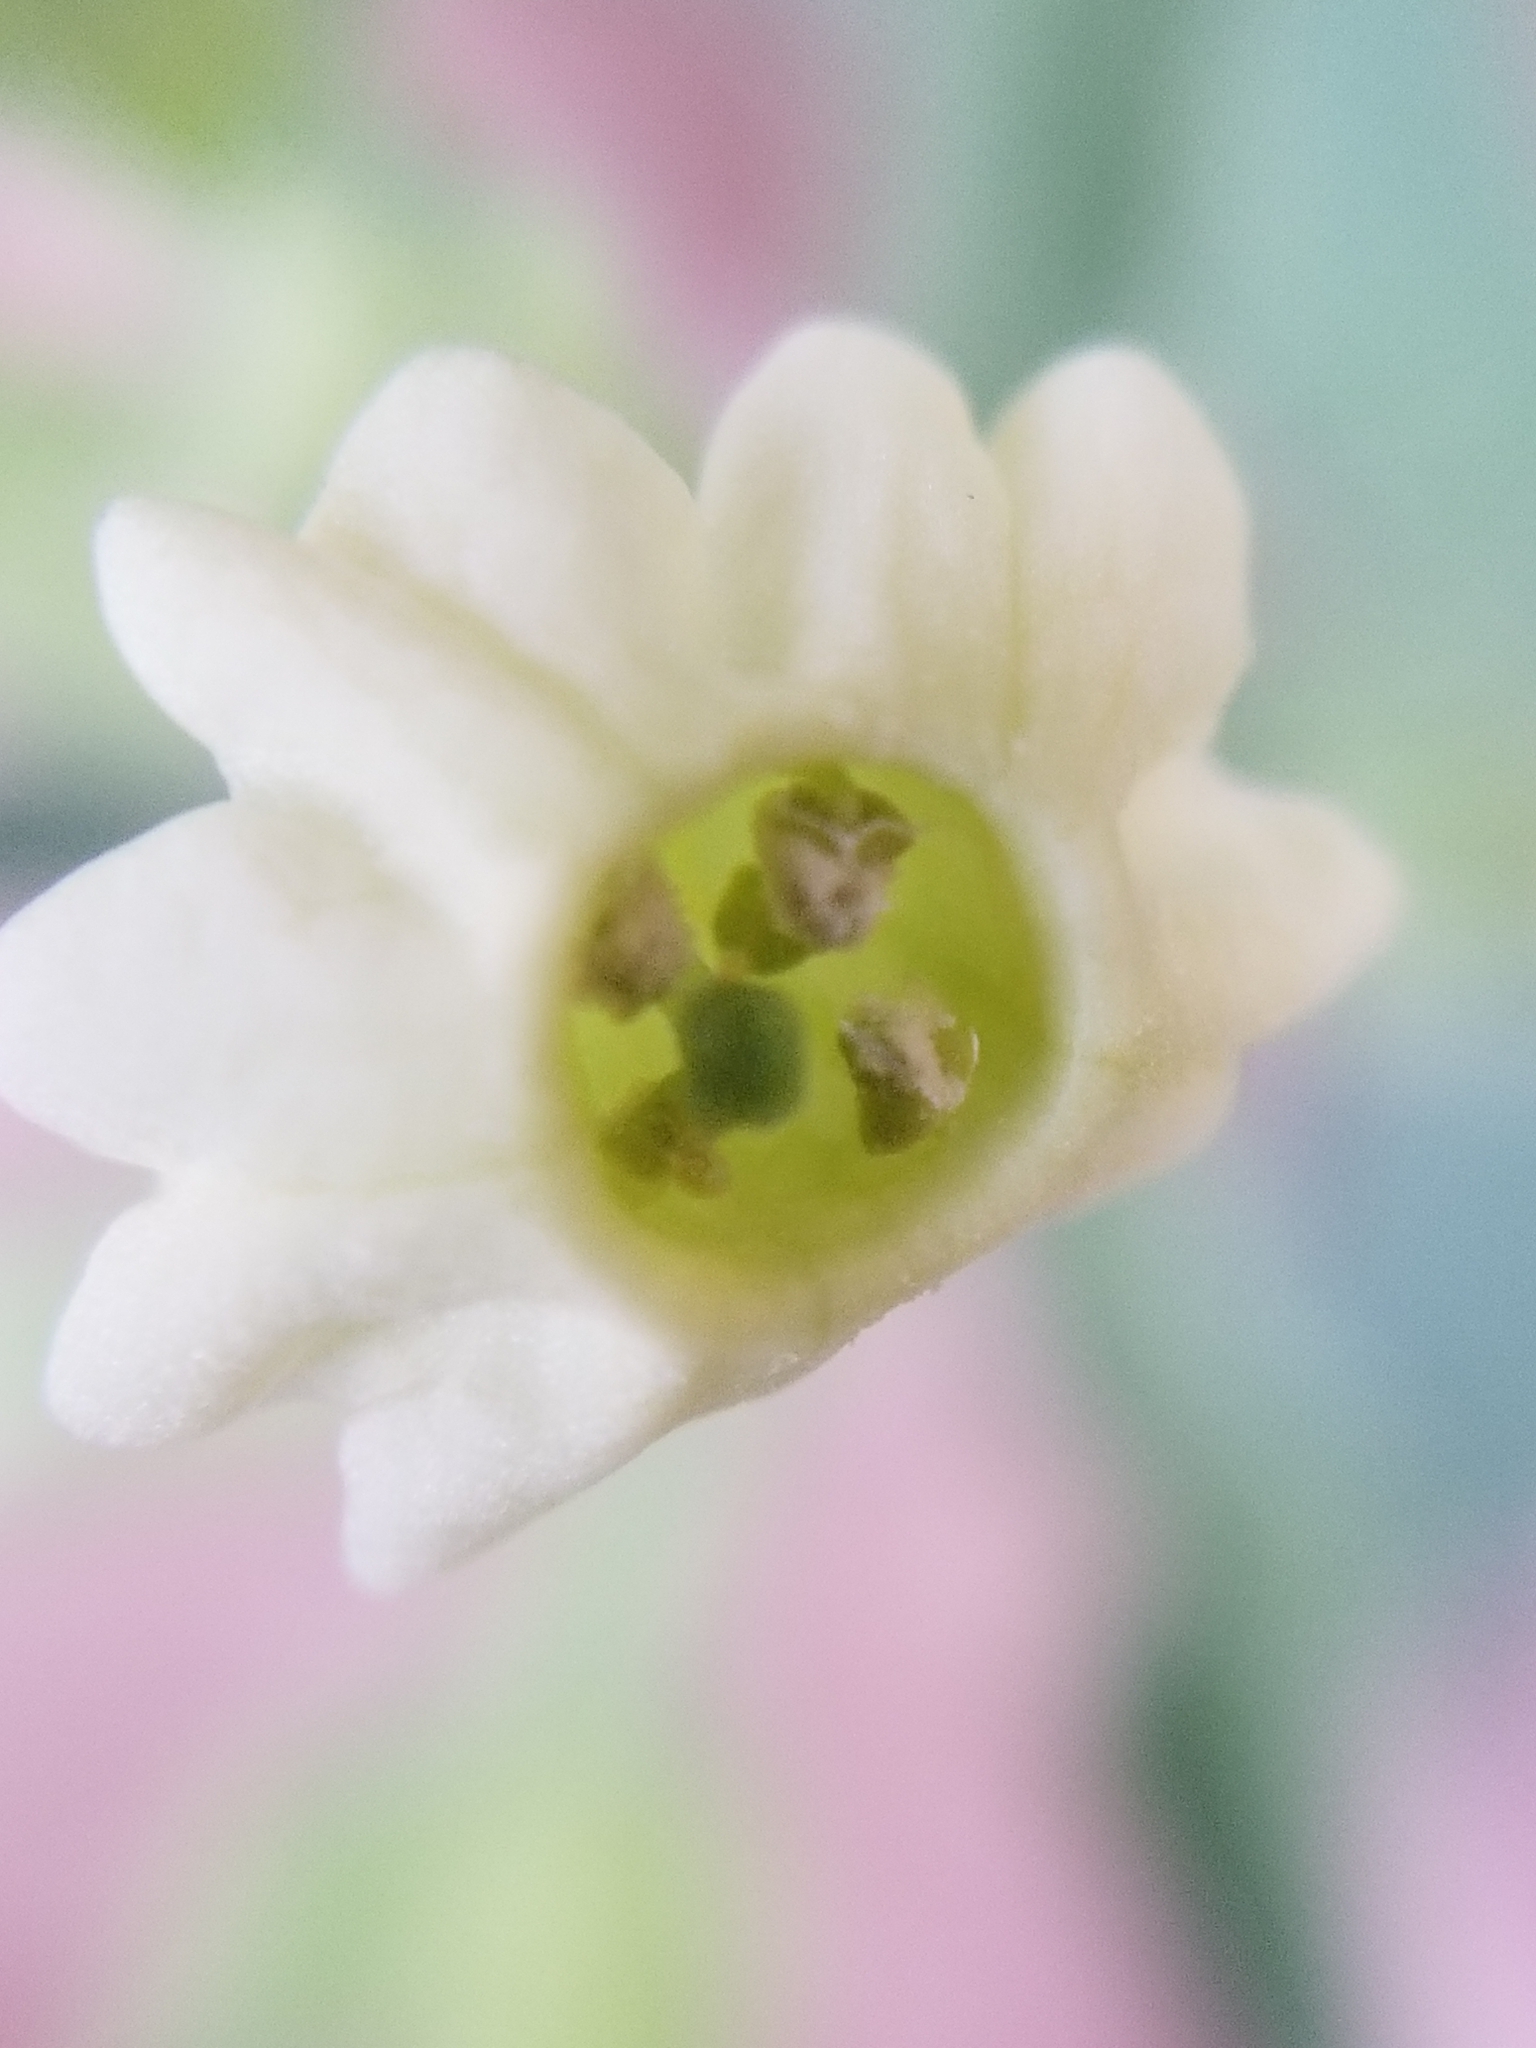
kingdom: Plantae
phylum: Tracheophyta
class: Magnoliopsida
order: Solanales
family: Solanaceae
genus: Nicotiana
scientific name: Nicotiana obtusifolia
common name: Desert tobacco
